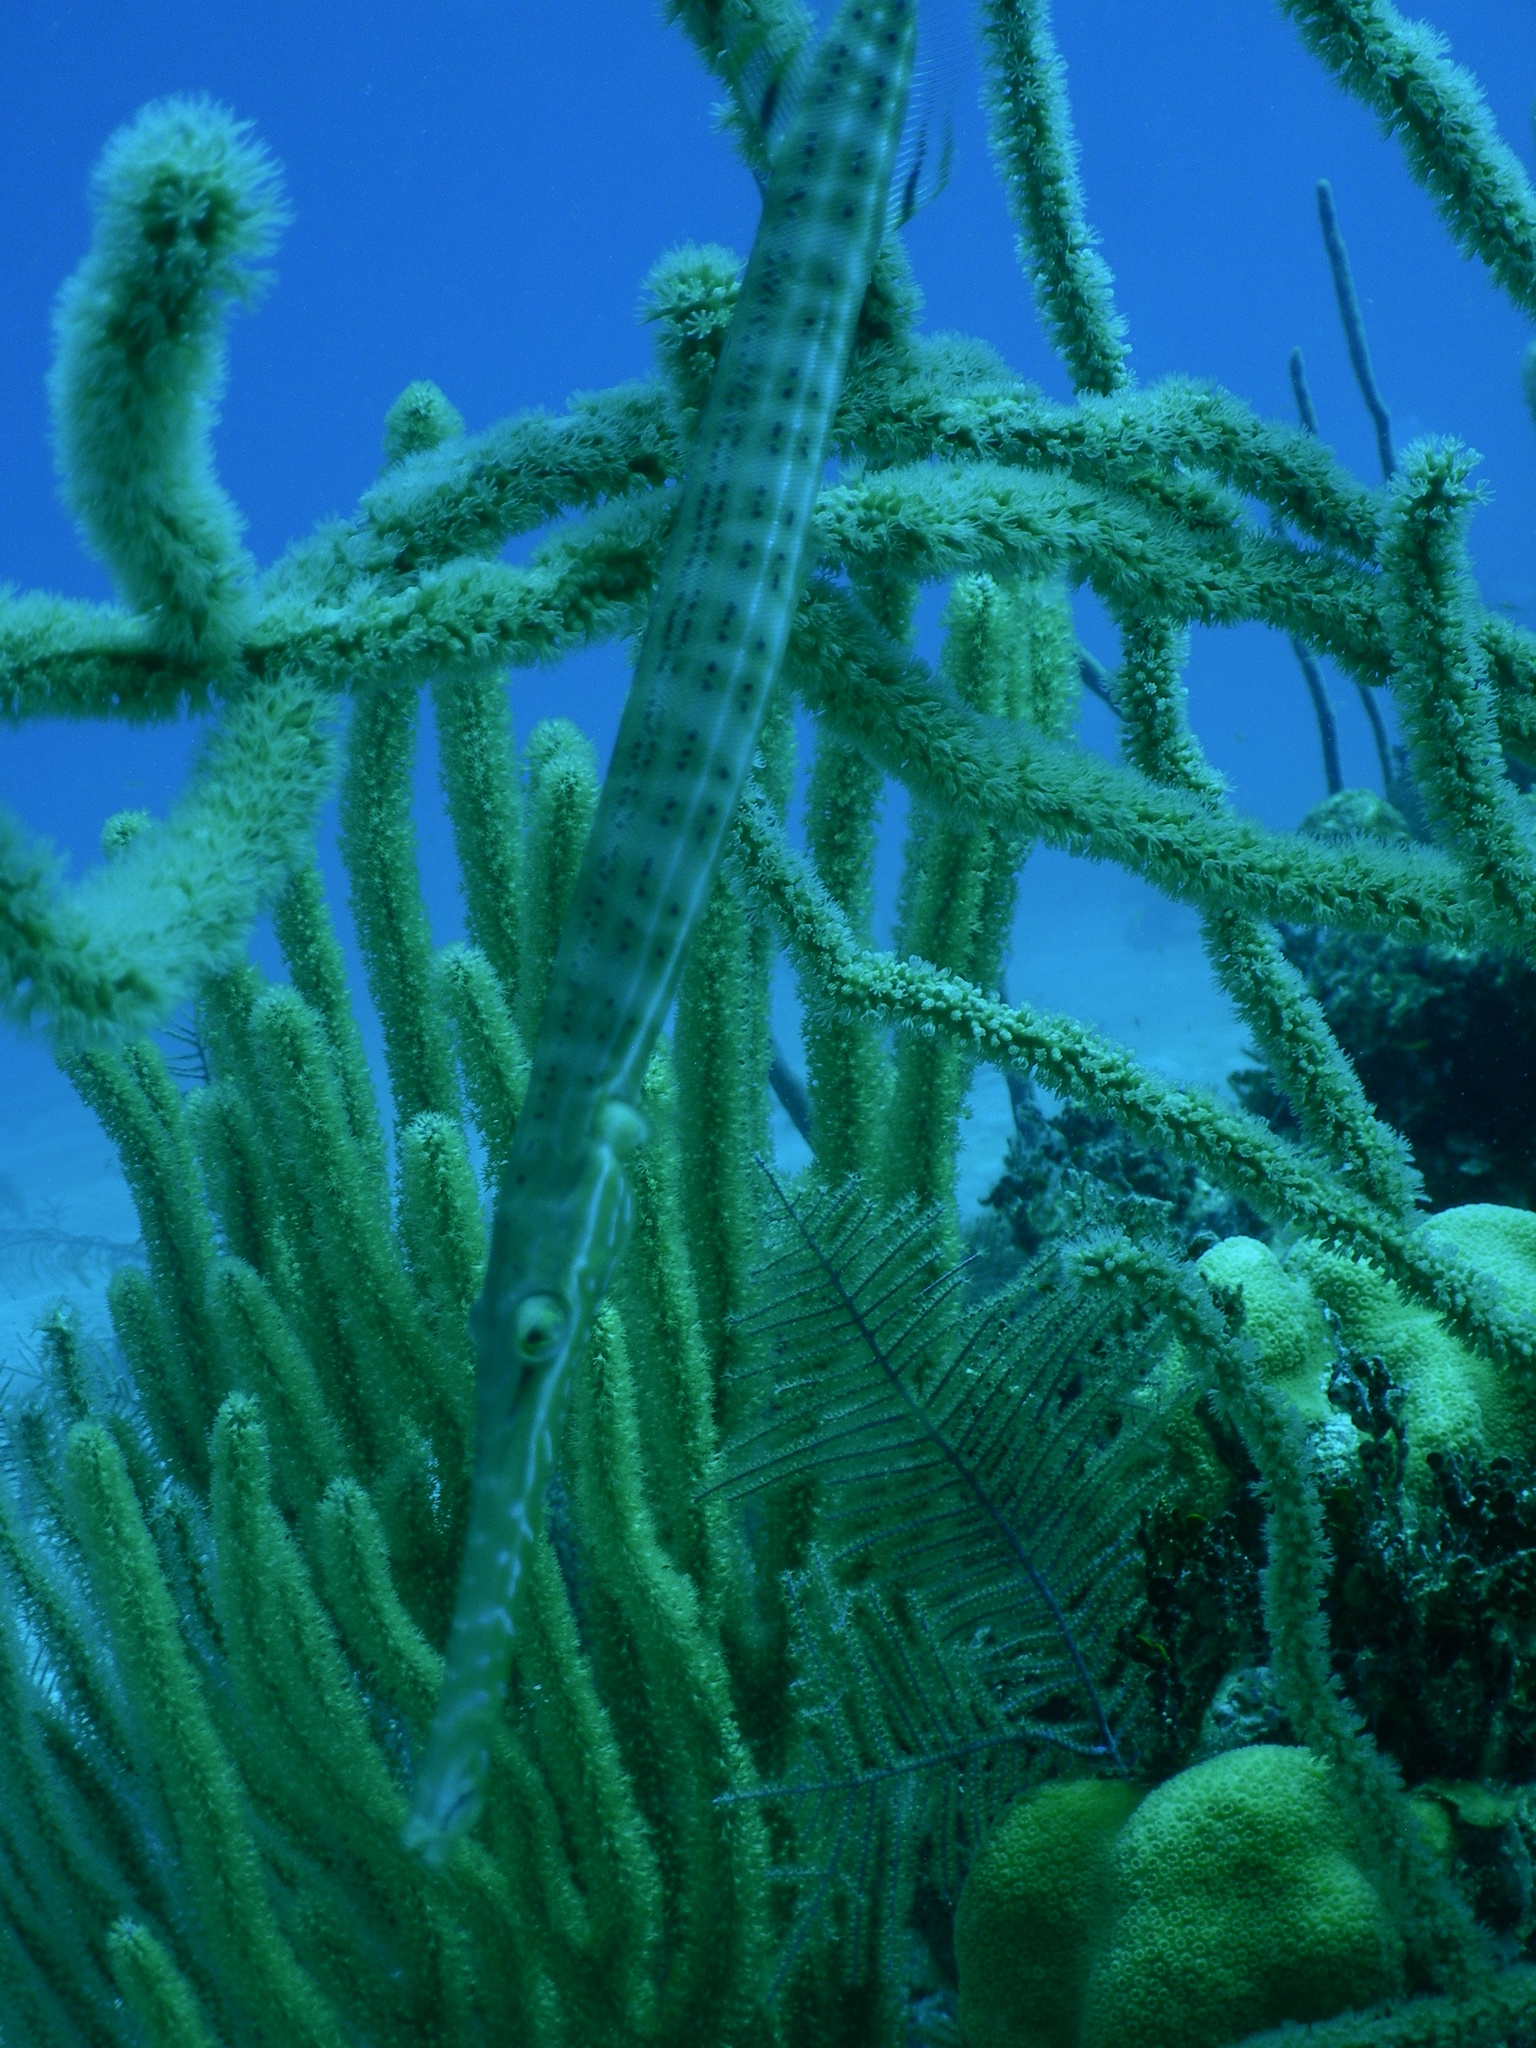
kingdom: Animalia
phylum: Chordata
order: Syngnathiformes
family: Aulostomidae
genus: Aulostomus
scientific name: Aulostomus maculatus
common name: West atlantic trumpetfish
